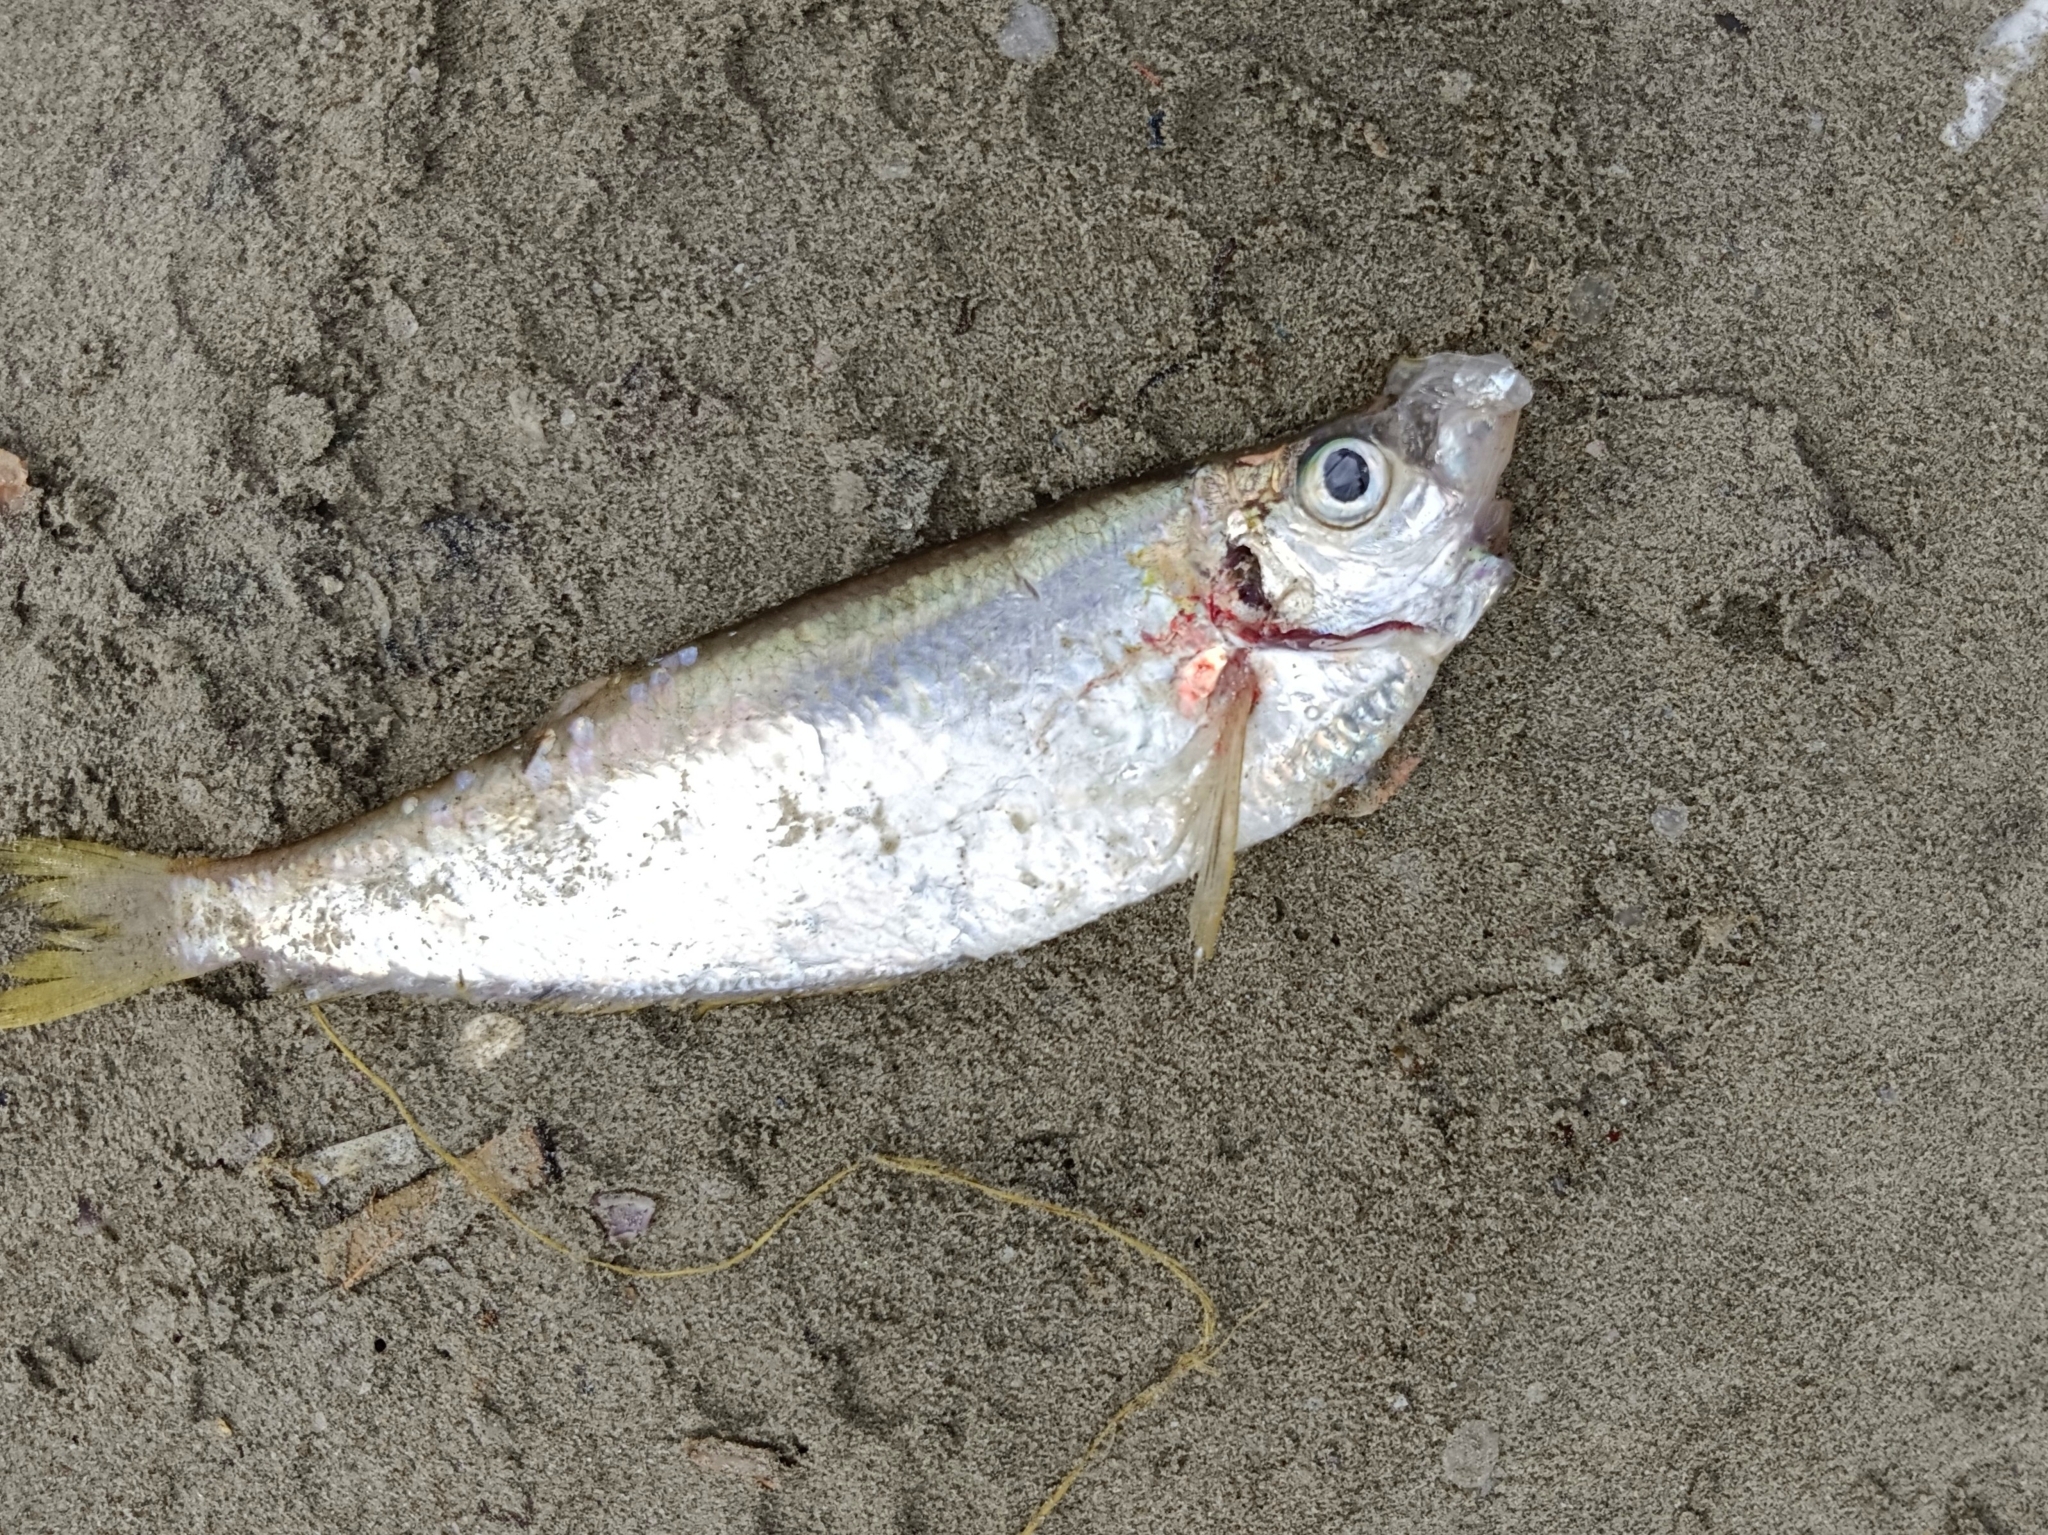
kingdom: Animalia
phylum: Chordata
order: Clupeiformes
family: Pristigasteridae
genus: Opisthopterus
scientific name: Opisthopterus tardoore
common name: Tardoore
